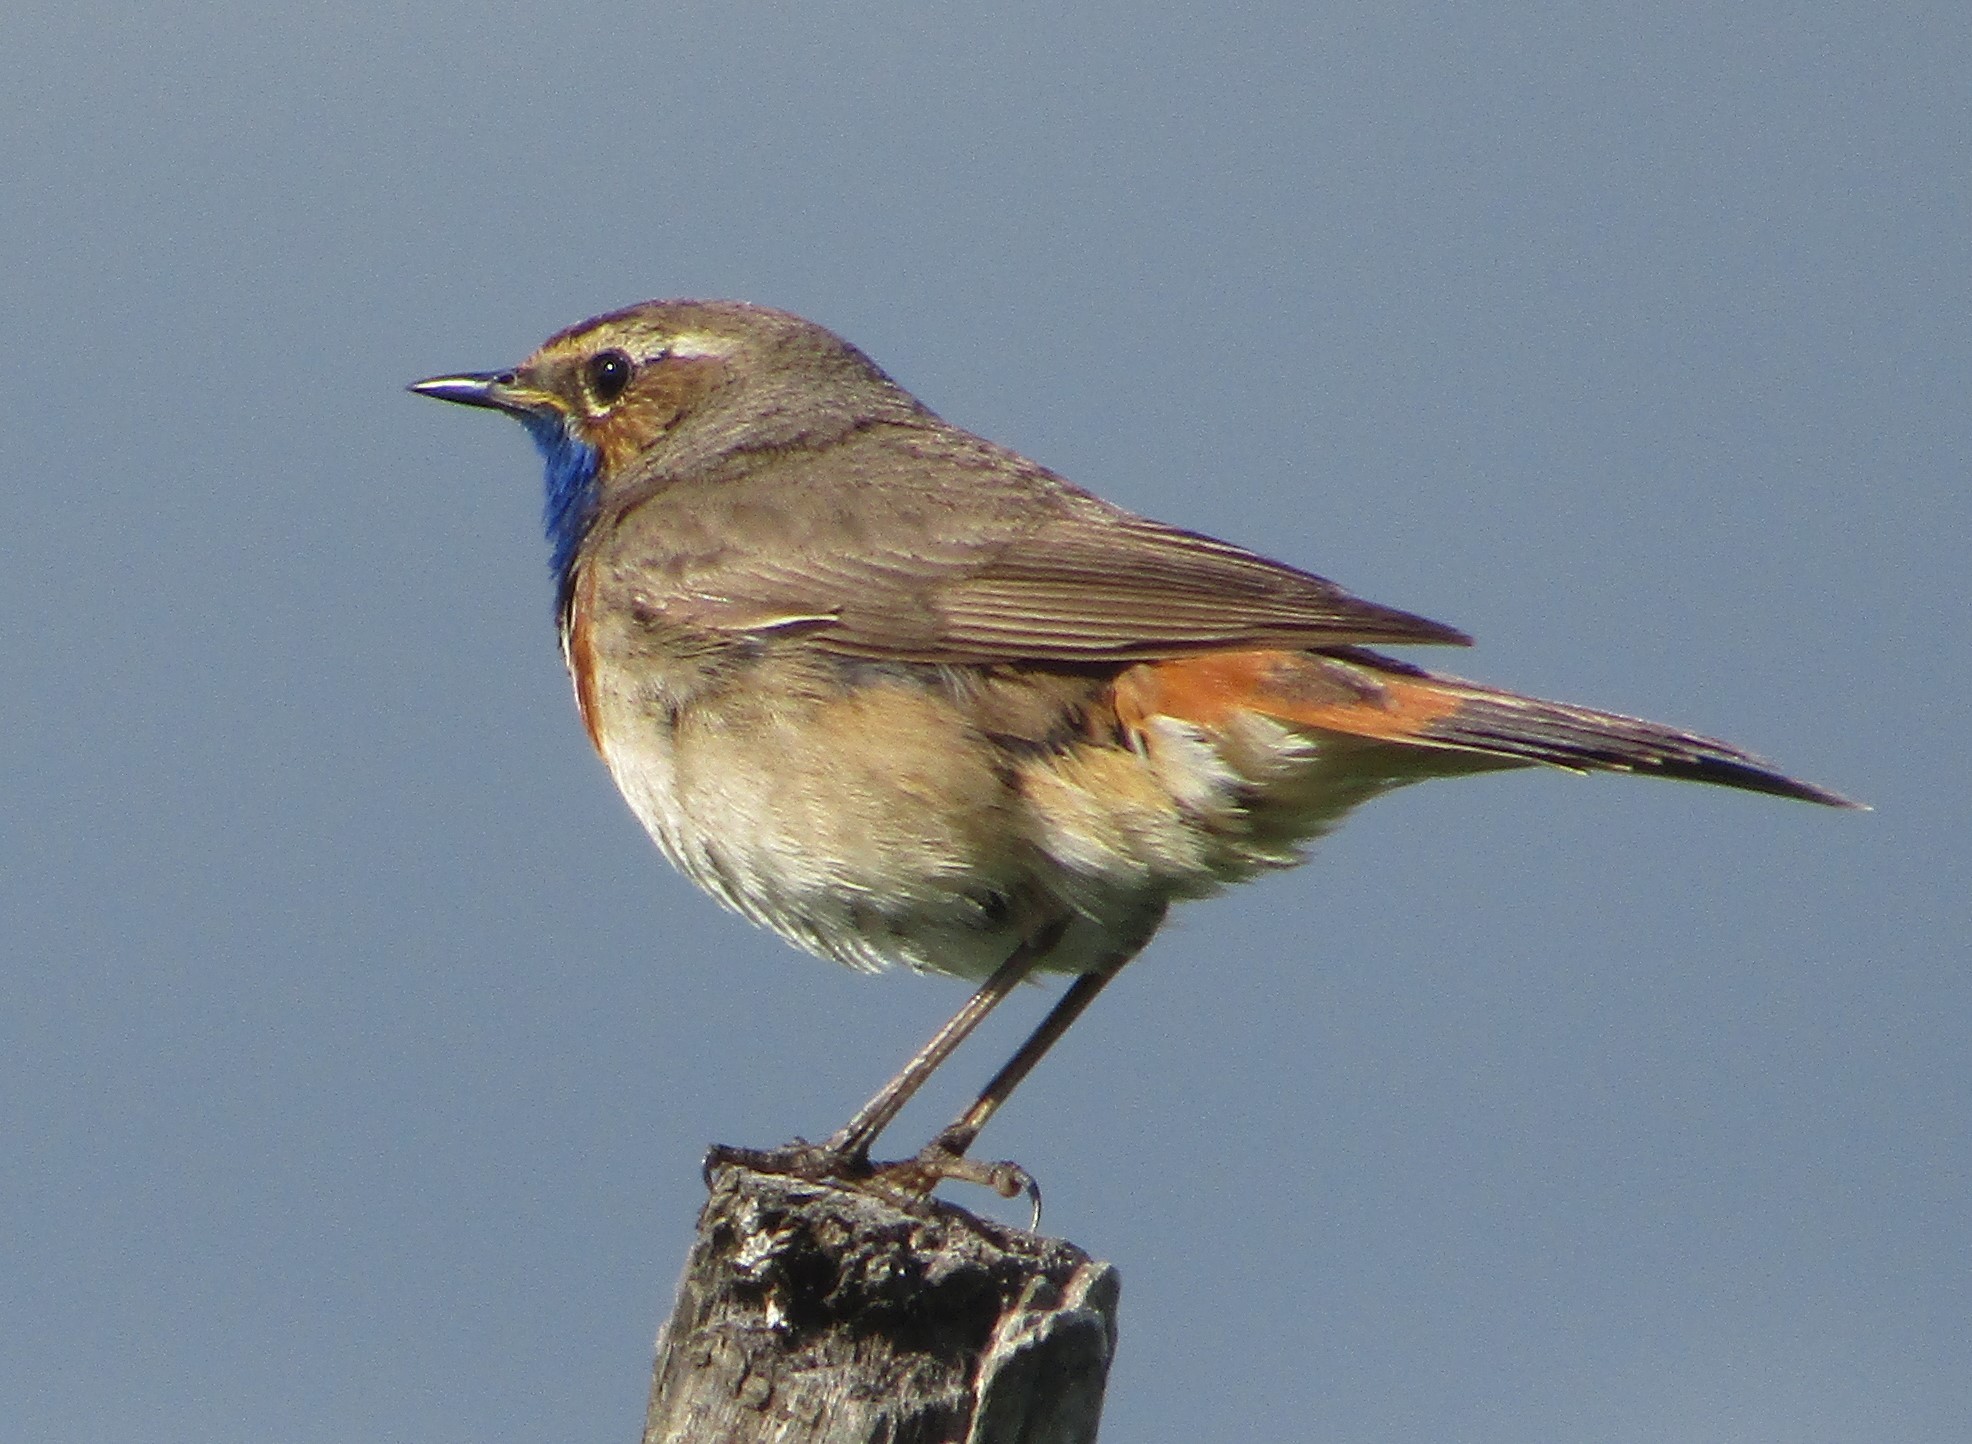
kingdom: Animalia
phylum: Chordata
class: Aves
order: Passeriformes
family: Muscicapidae
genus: Luscinia
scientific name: Luscinia svecica
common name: Bluethroat
